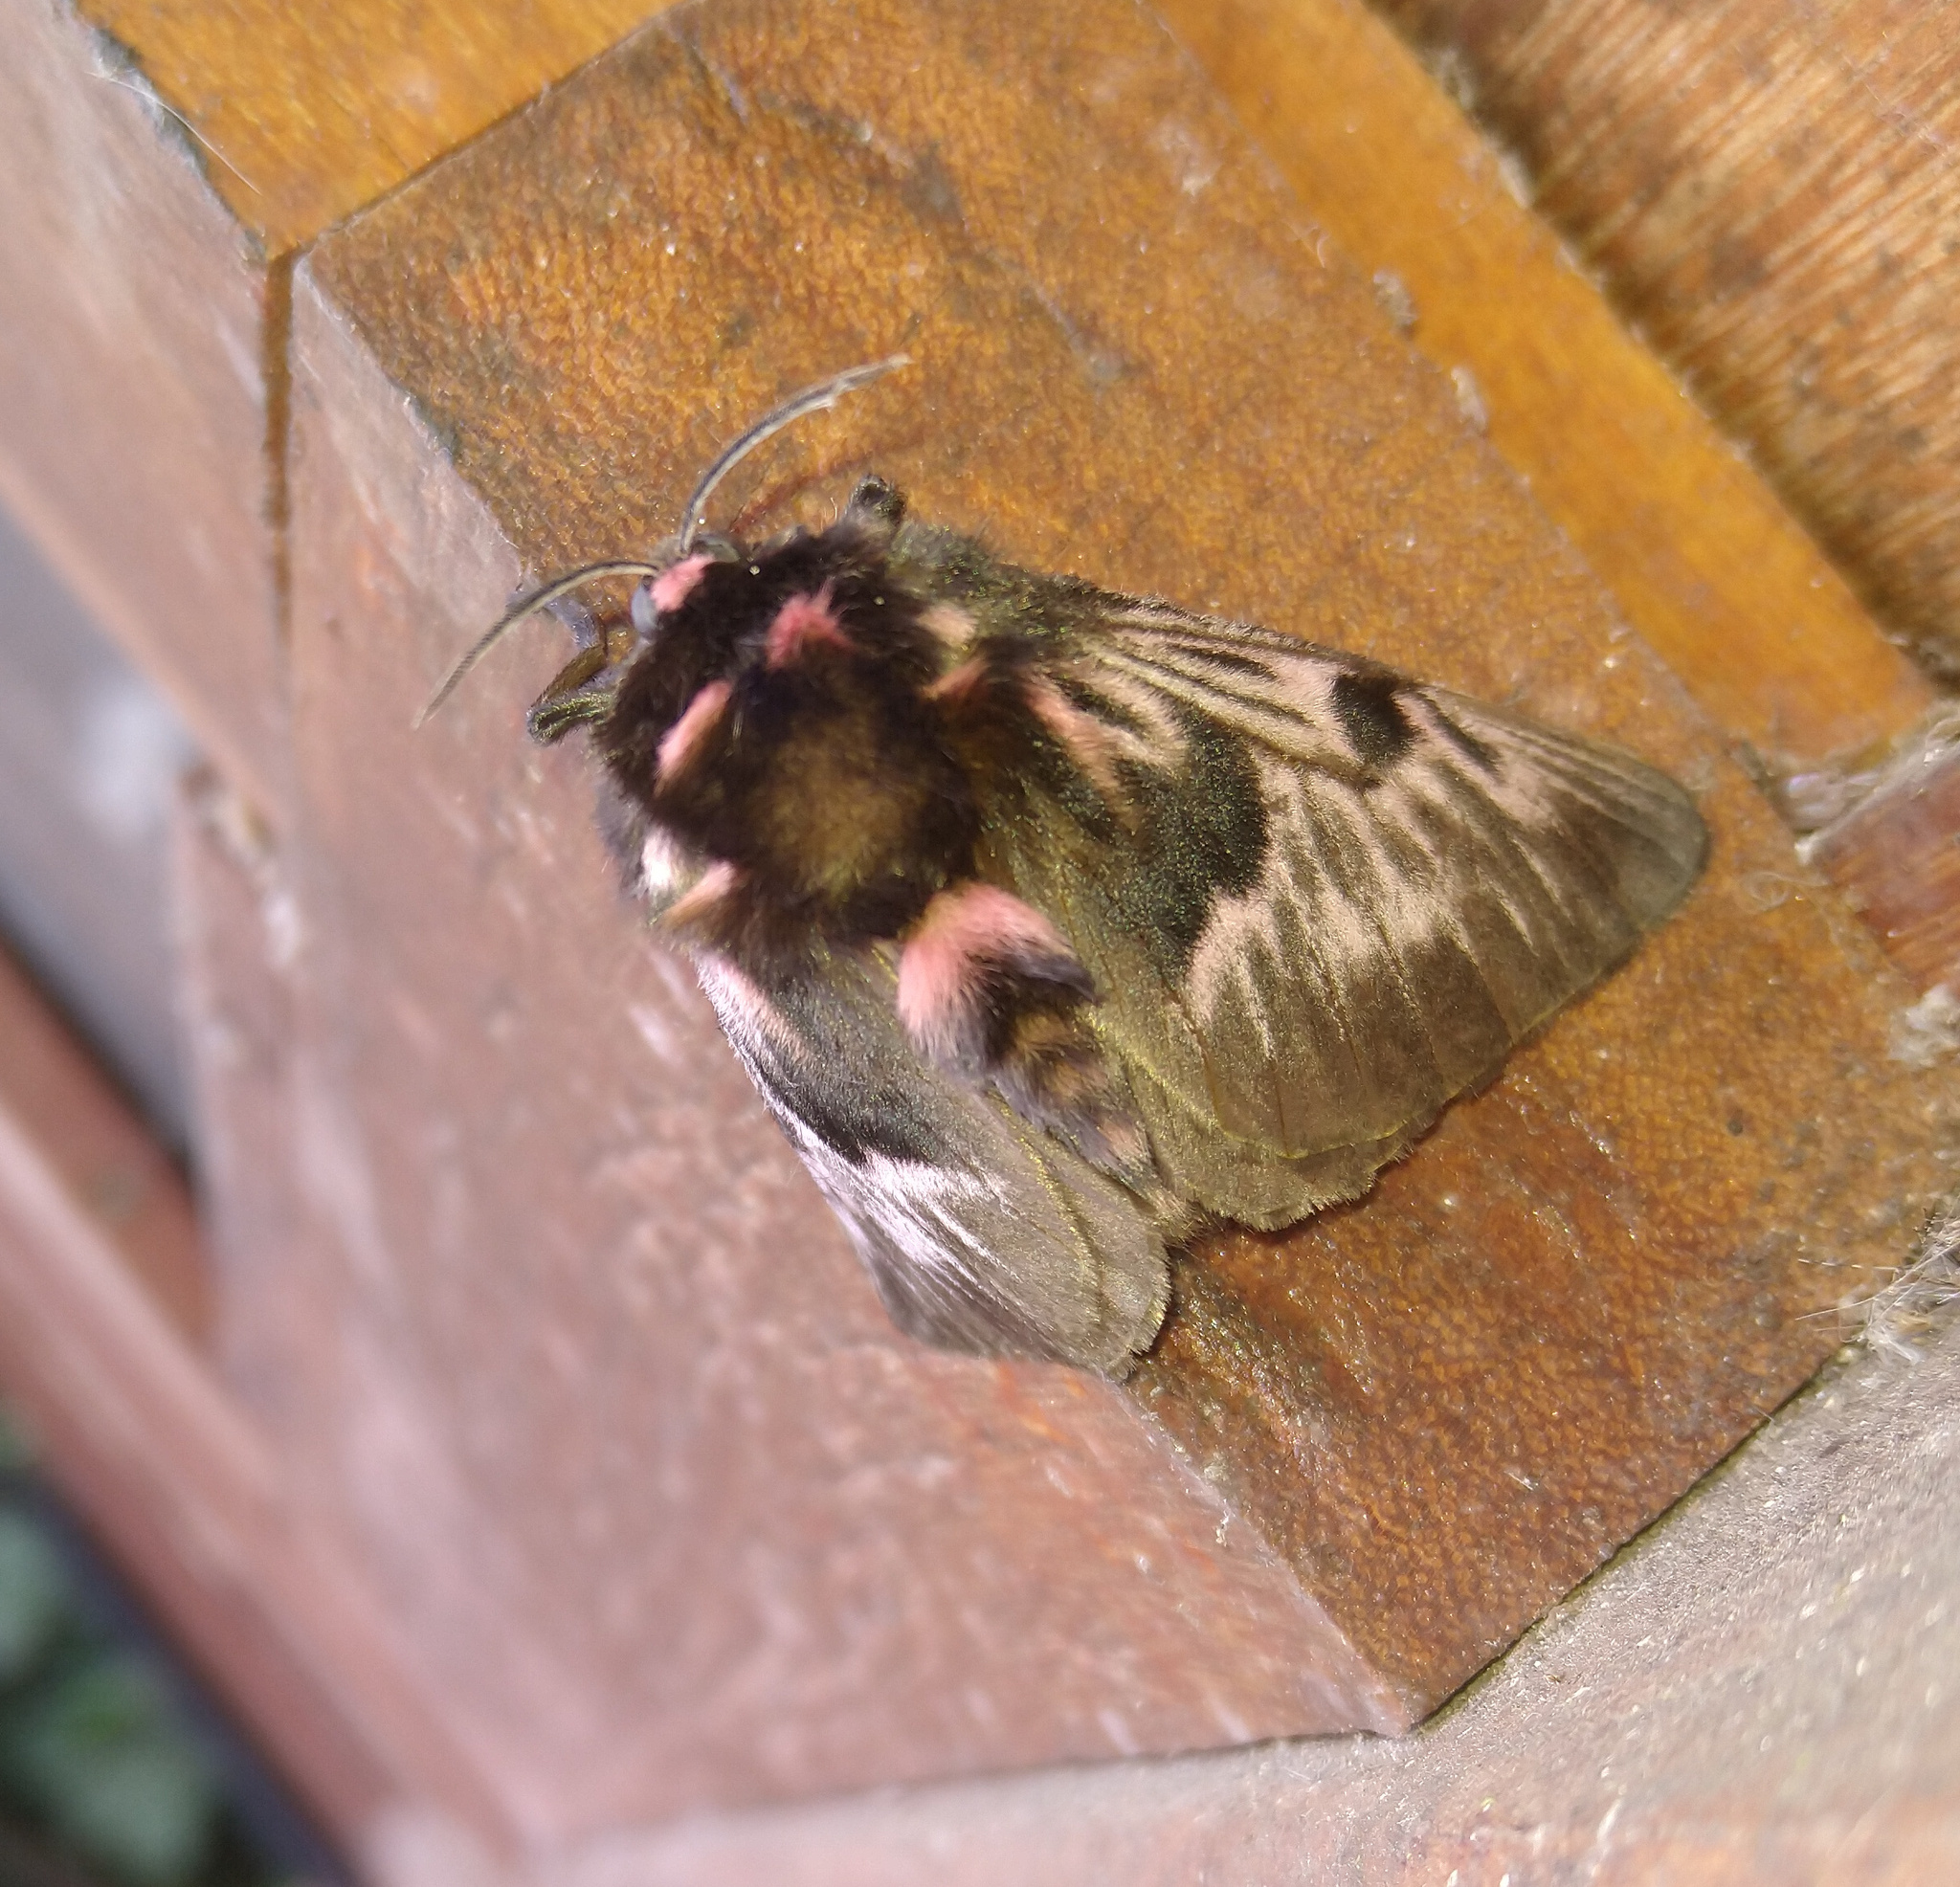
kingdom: Animalia
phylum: Arthropoda
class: Insecta
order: Lepidoptera
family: Megalopygidae
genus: Megalopyge
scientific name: Megalopyge lanata
